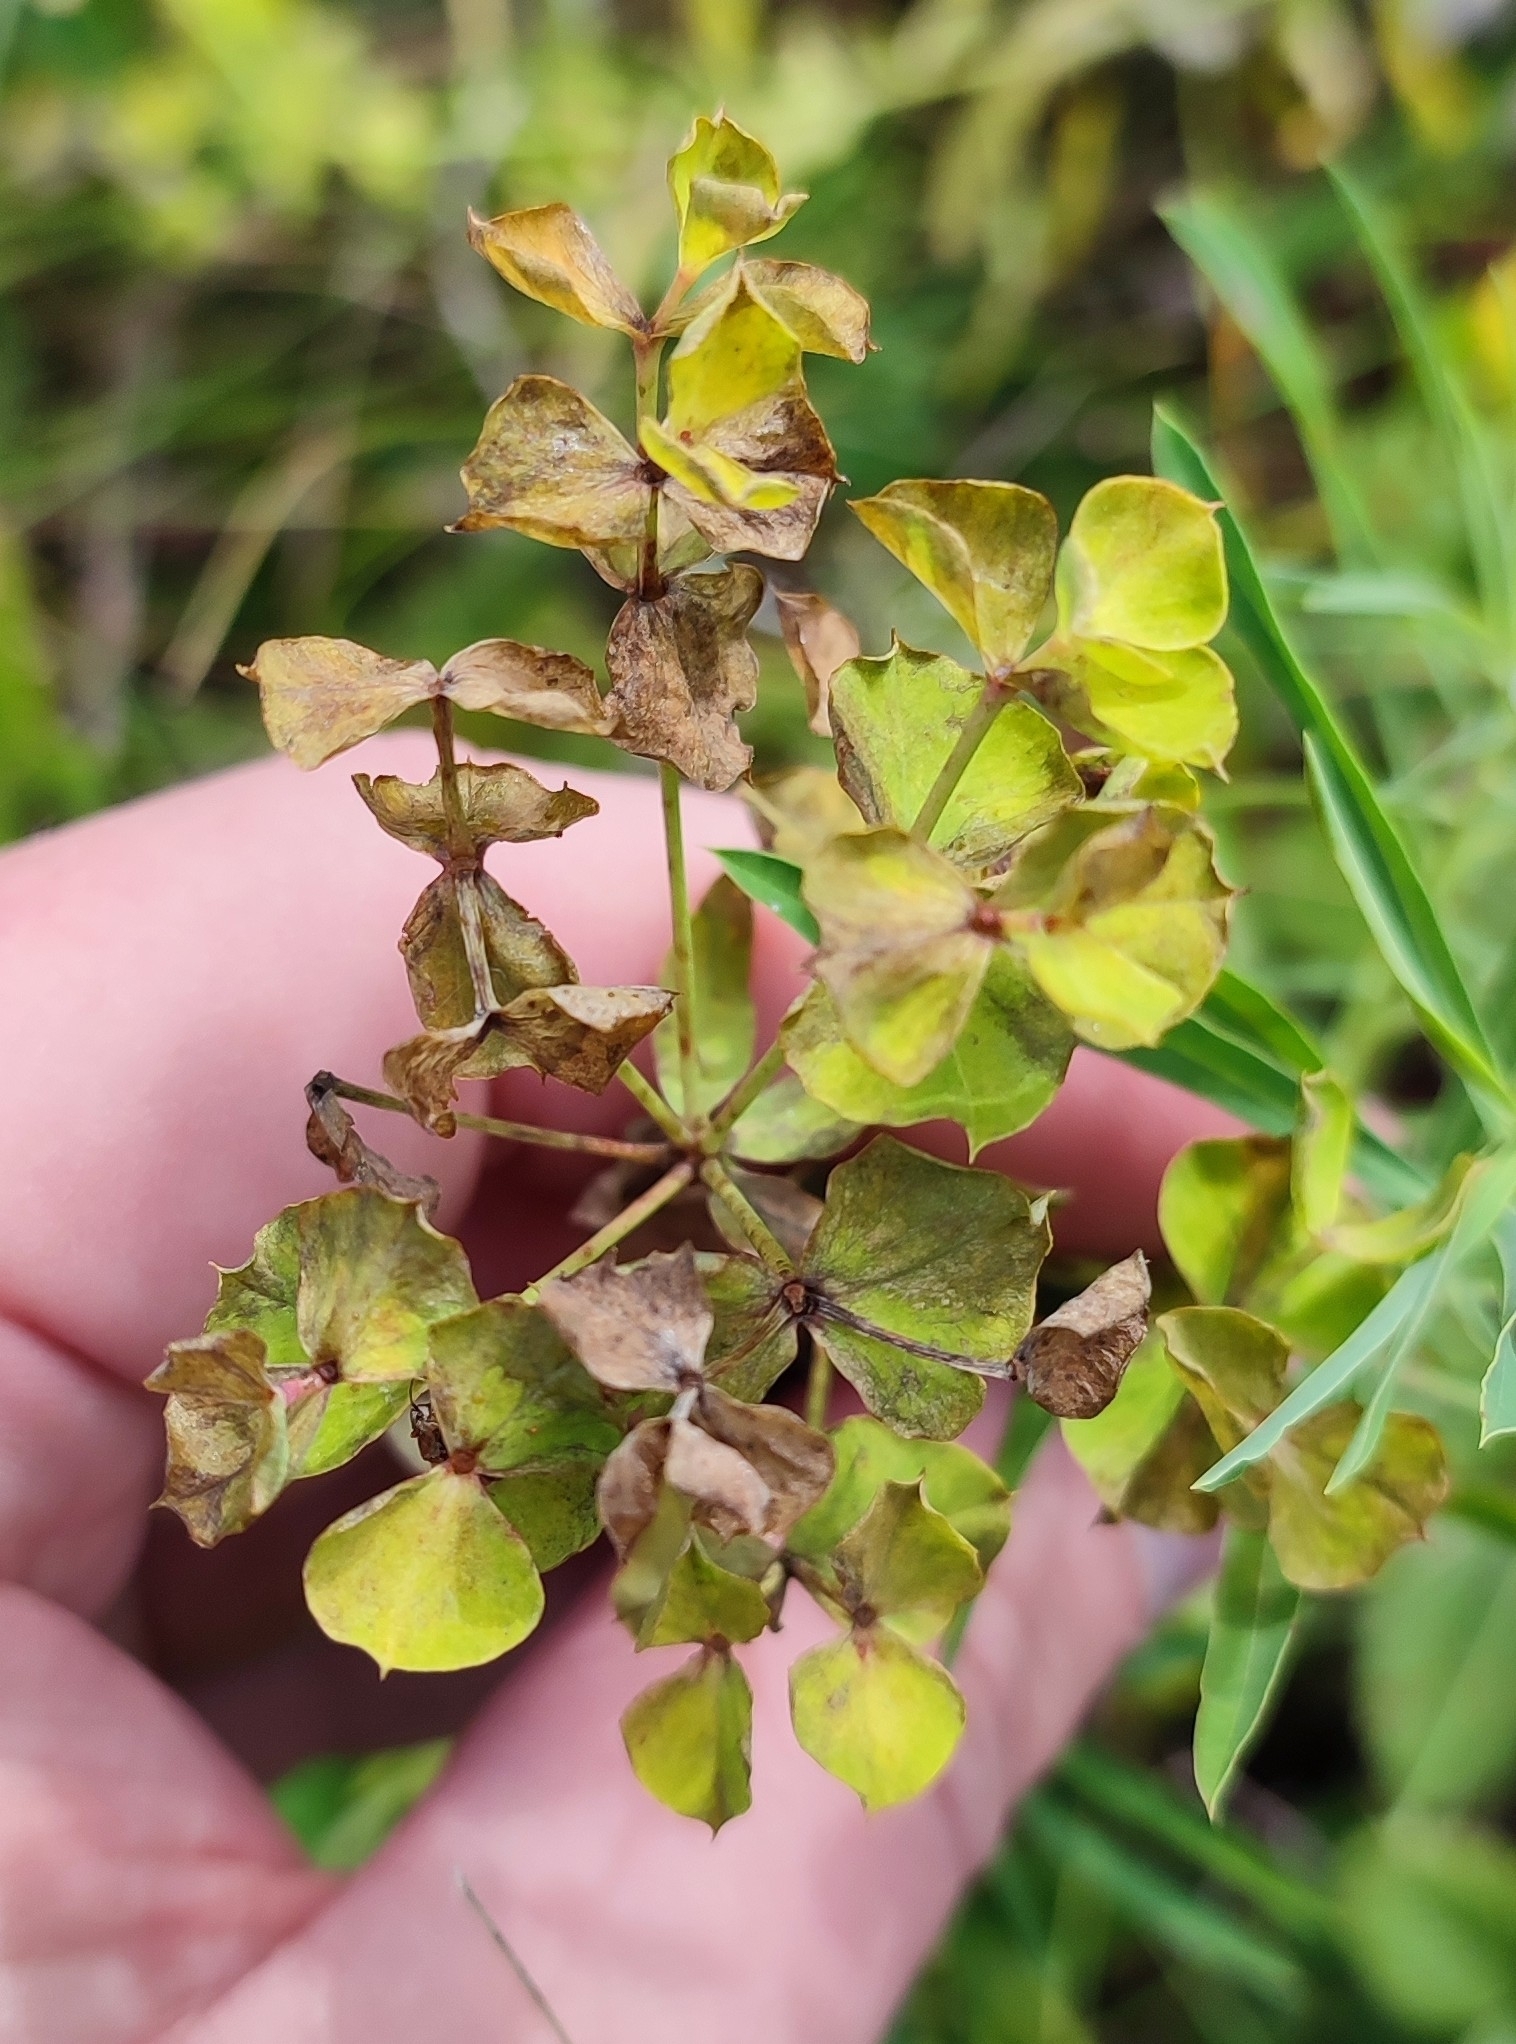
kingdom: Plantae
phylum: Tracheophyta
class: Magnoliopsida
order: Malpighiales
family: Euphorbiaceae
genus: Euphorbia
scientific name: Euphorbia virgata
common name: Leafy spurge
